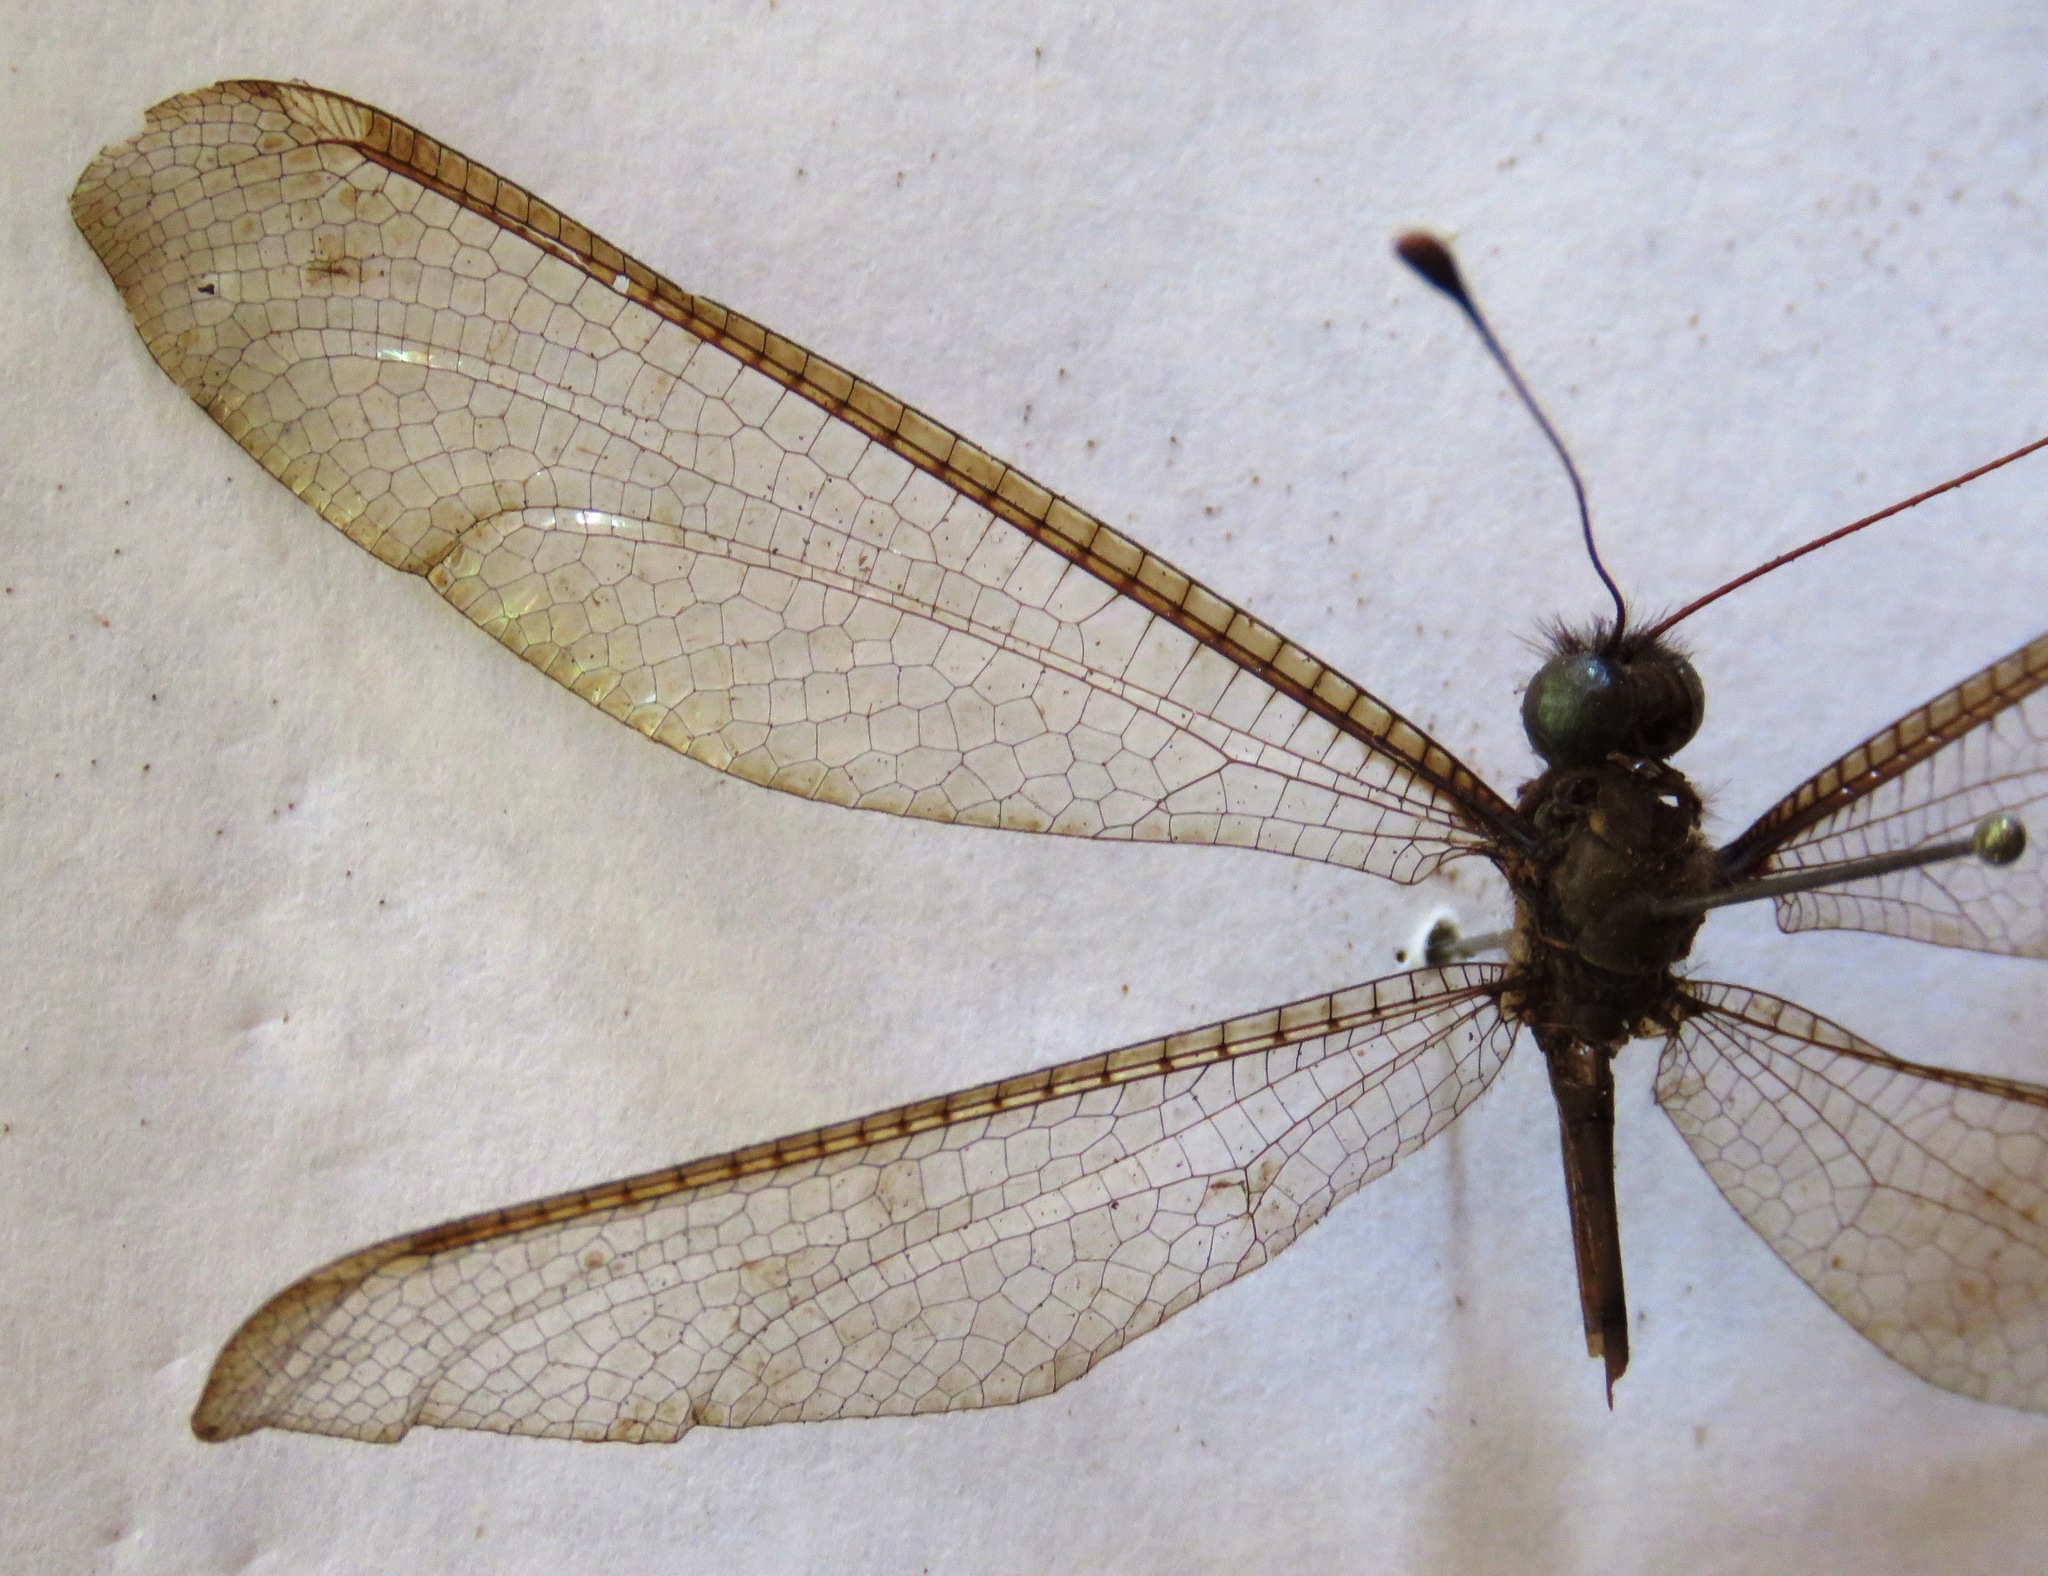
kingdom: Animalia
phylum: Arthropoda
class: Insecta
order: Neuroptera
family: Ascalaphidae
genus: Haploglenius
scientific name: Haploglenius luteus
